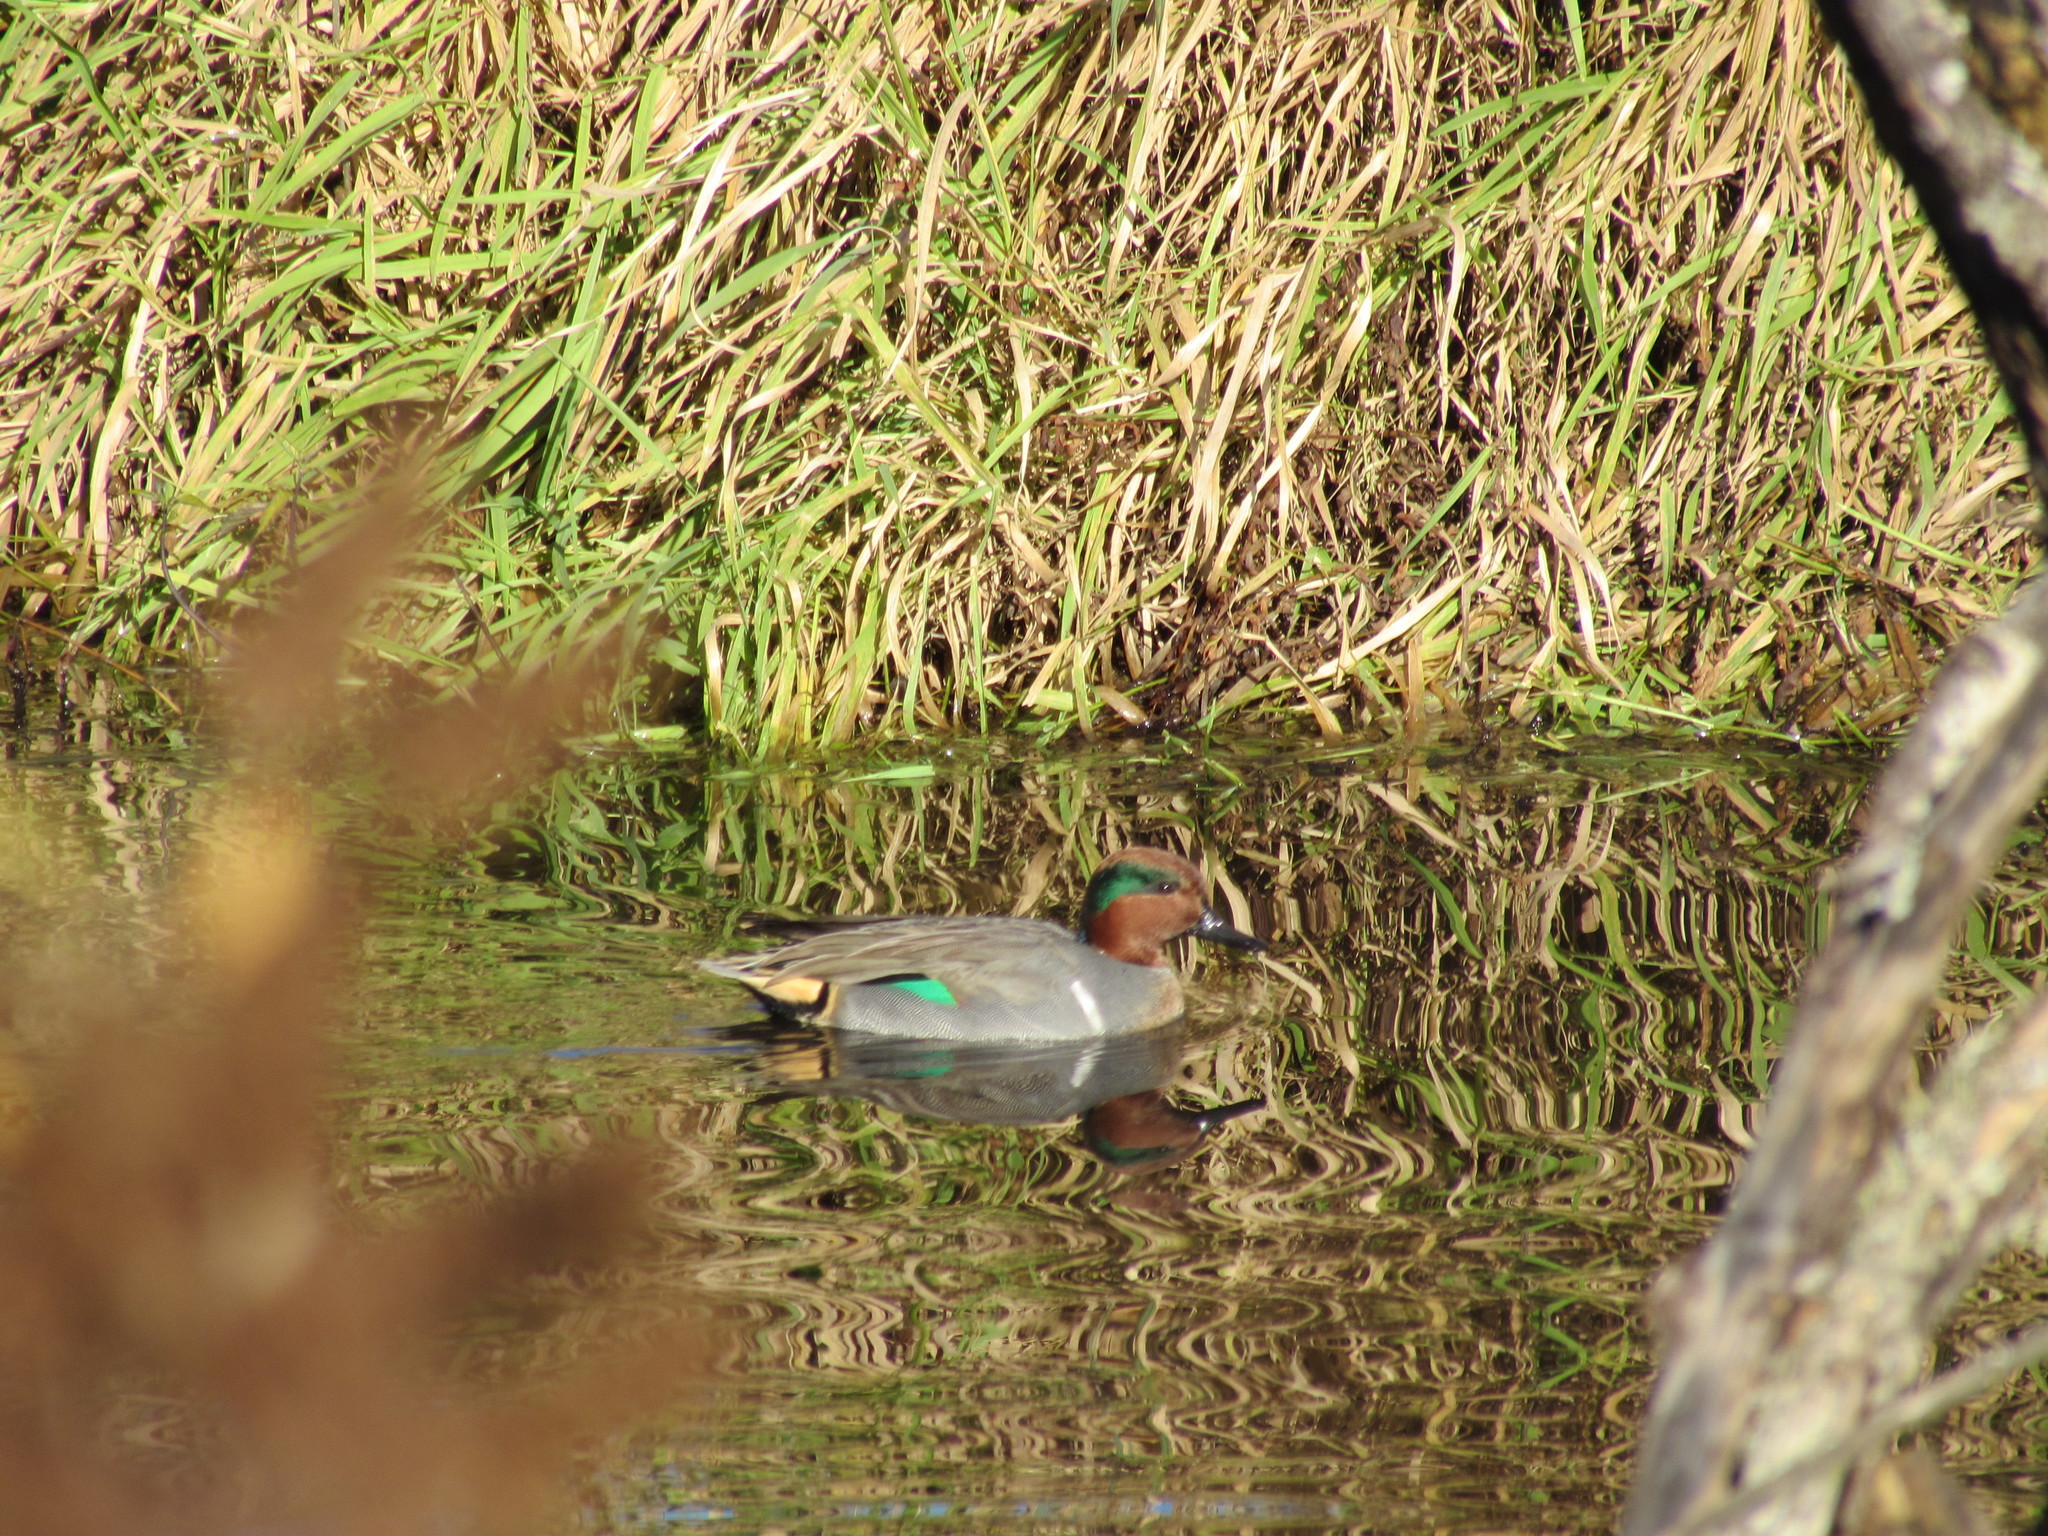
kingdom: Animalia
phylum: Chordata
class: Aves
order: Anseriformes
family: Anatidae
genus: Anas
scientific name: Anas crecca
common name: Eurasian teal
